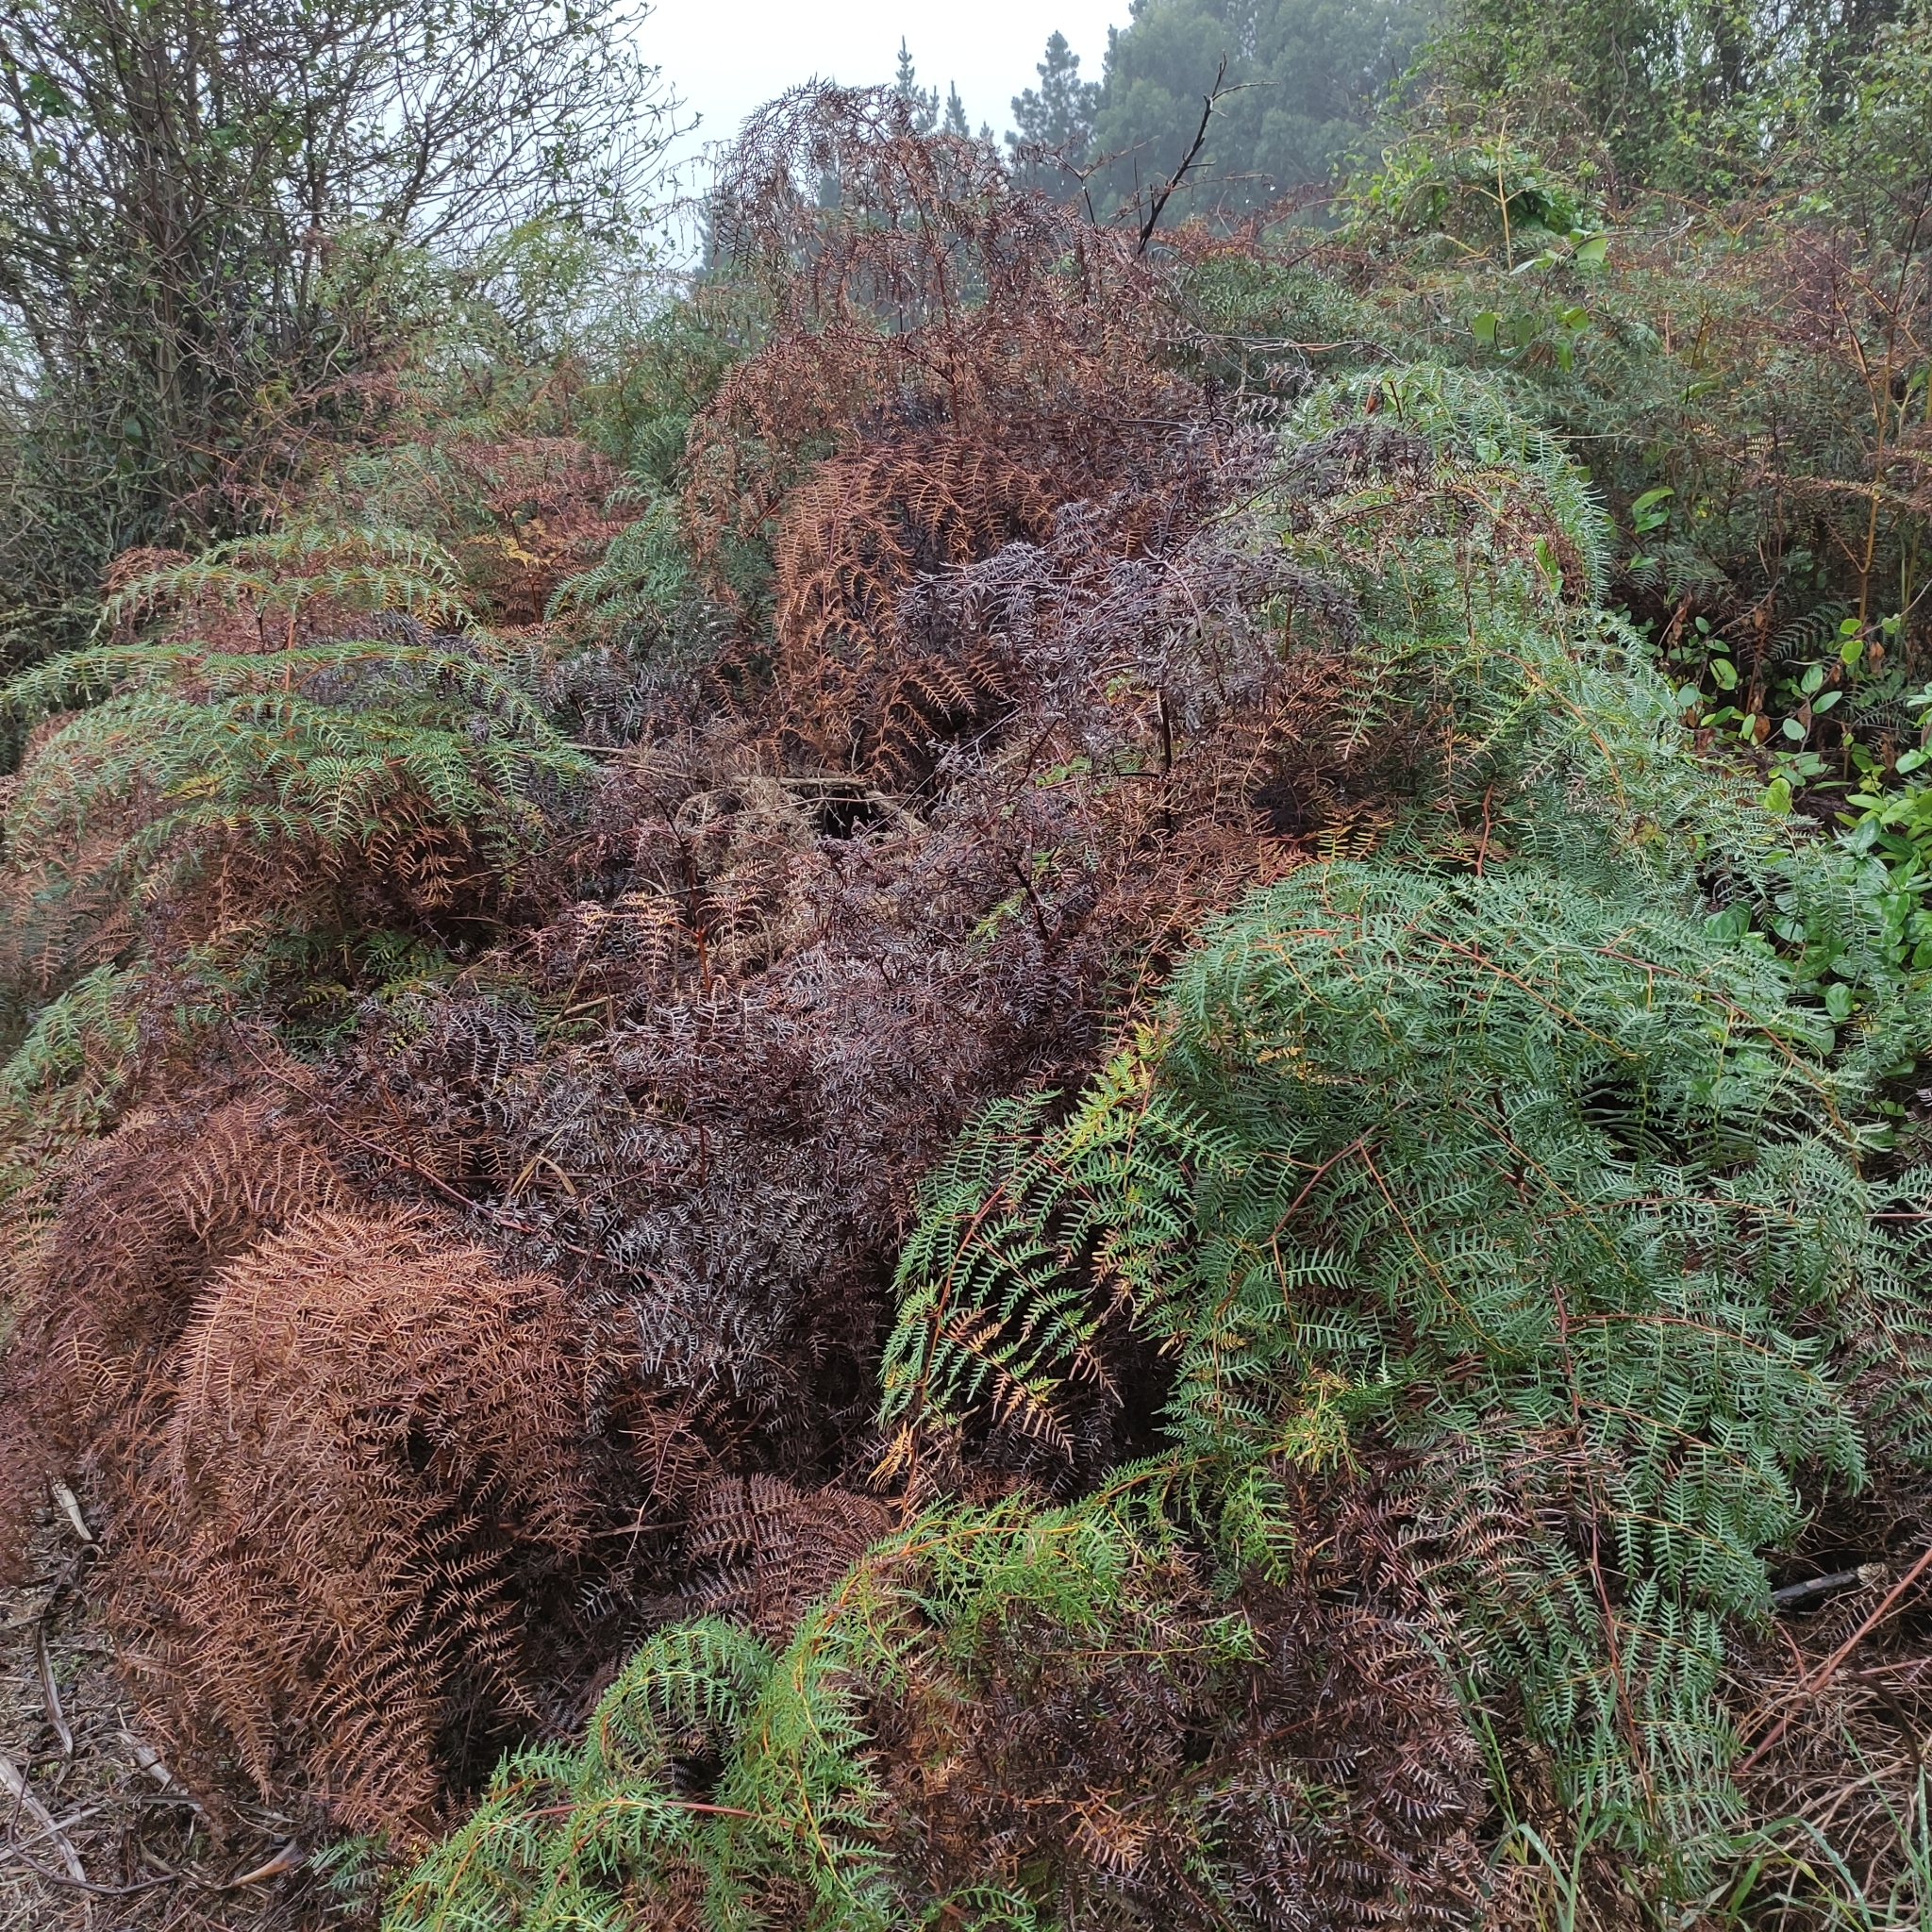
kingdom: Plantae
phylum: Tracheophyta
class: Polypodiopsida
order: Polypodiales
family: Dennstaedtiaceae
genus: Pteridium
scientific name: Pteridium esculentum
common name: Bracken fern
